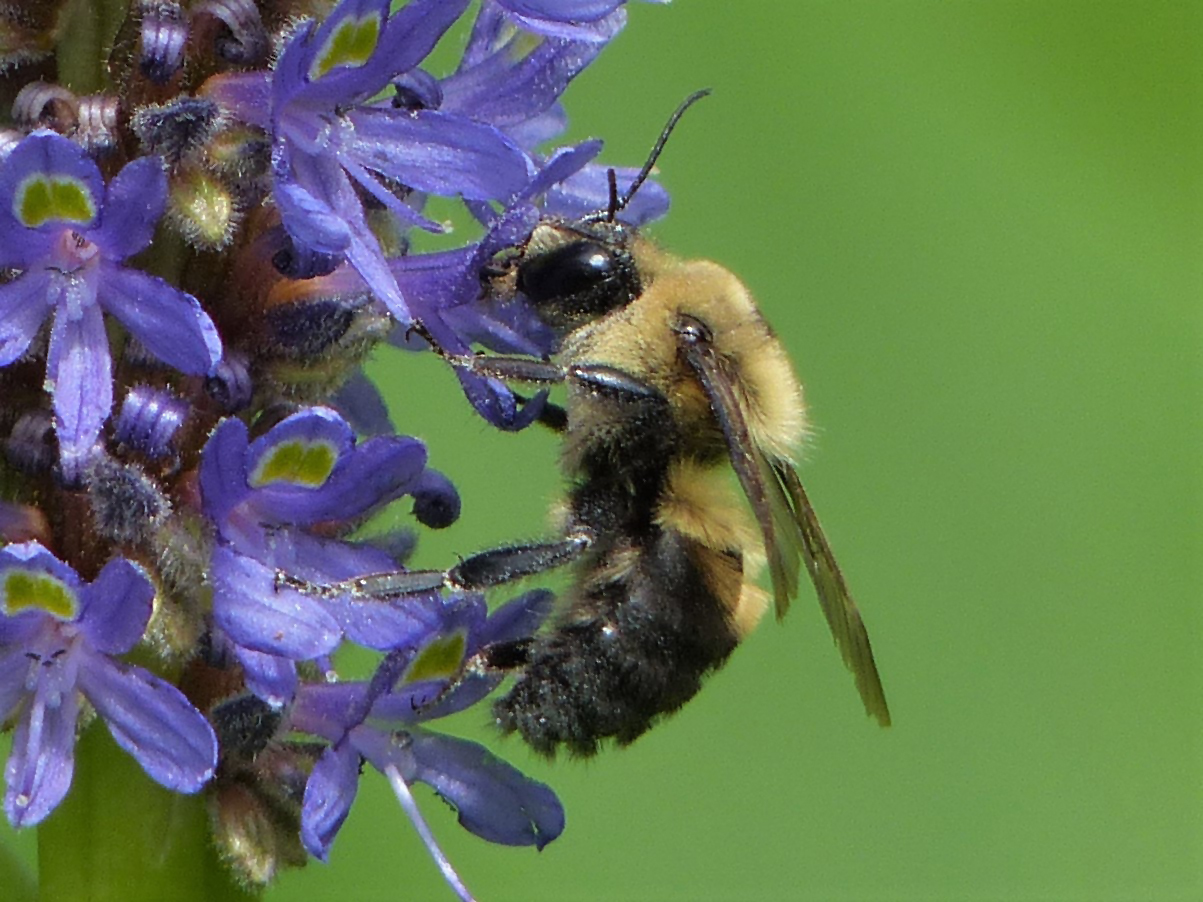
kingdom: Animalia
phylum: Arthropoda
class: Insecta
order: Hymenoptera
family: Apidae
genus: Bombus
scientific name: Bombus griseocollis
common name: Brown-belted bumble bee
